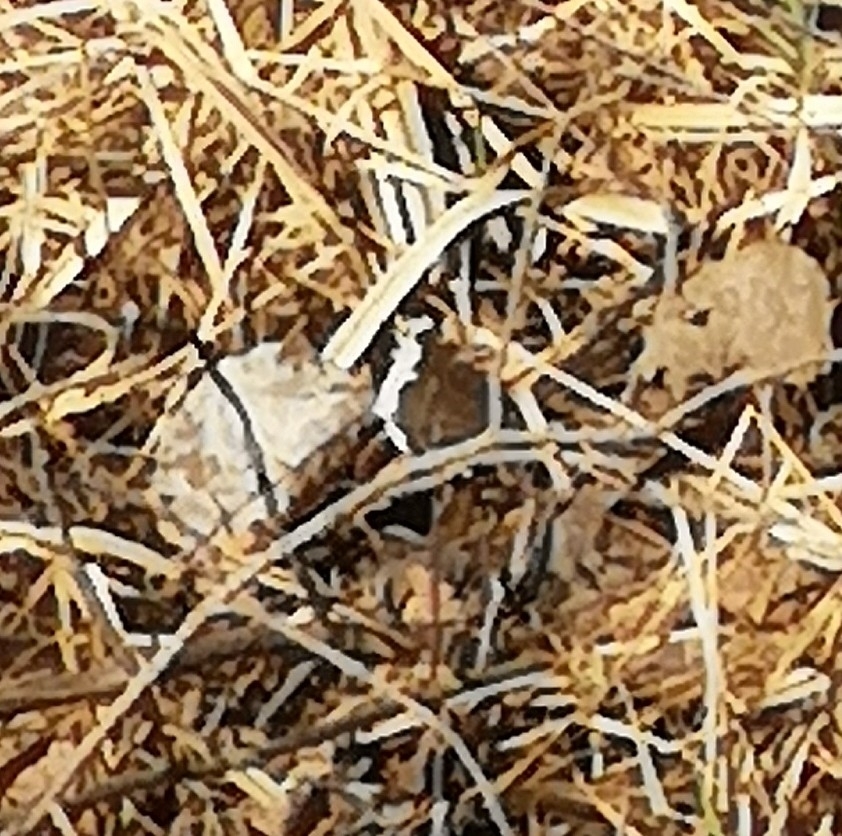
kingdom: Animalia
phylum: Arthropoda
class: Insecta
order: Lepidoptera
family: Nymphalidae
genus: Nymphalis
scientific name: Nymphalis antiopa
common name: Camberwell beauty
